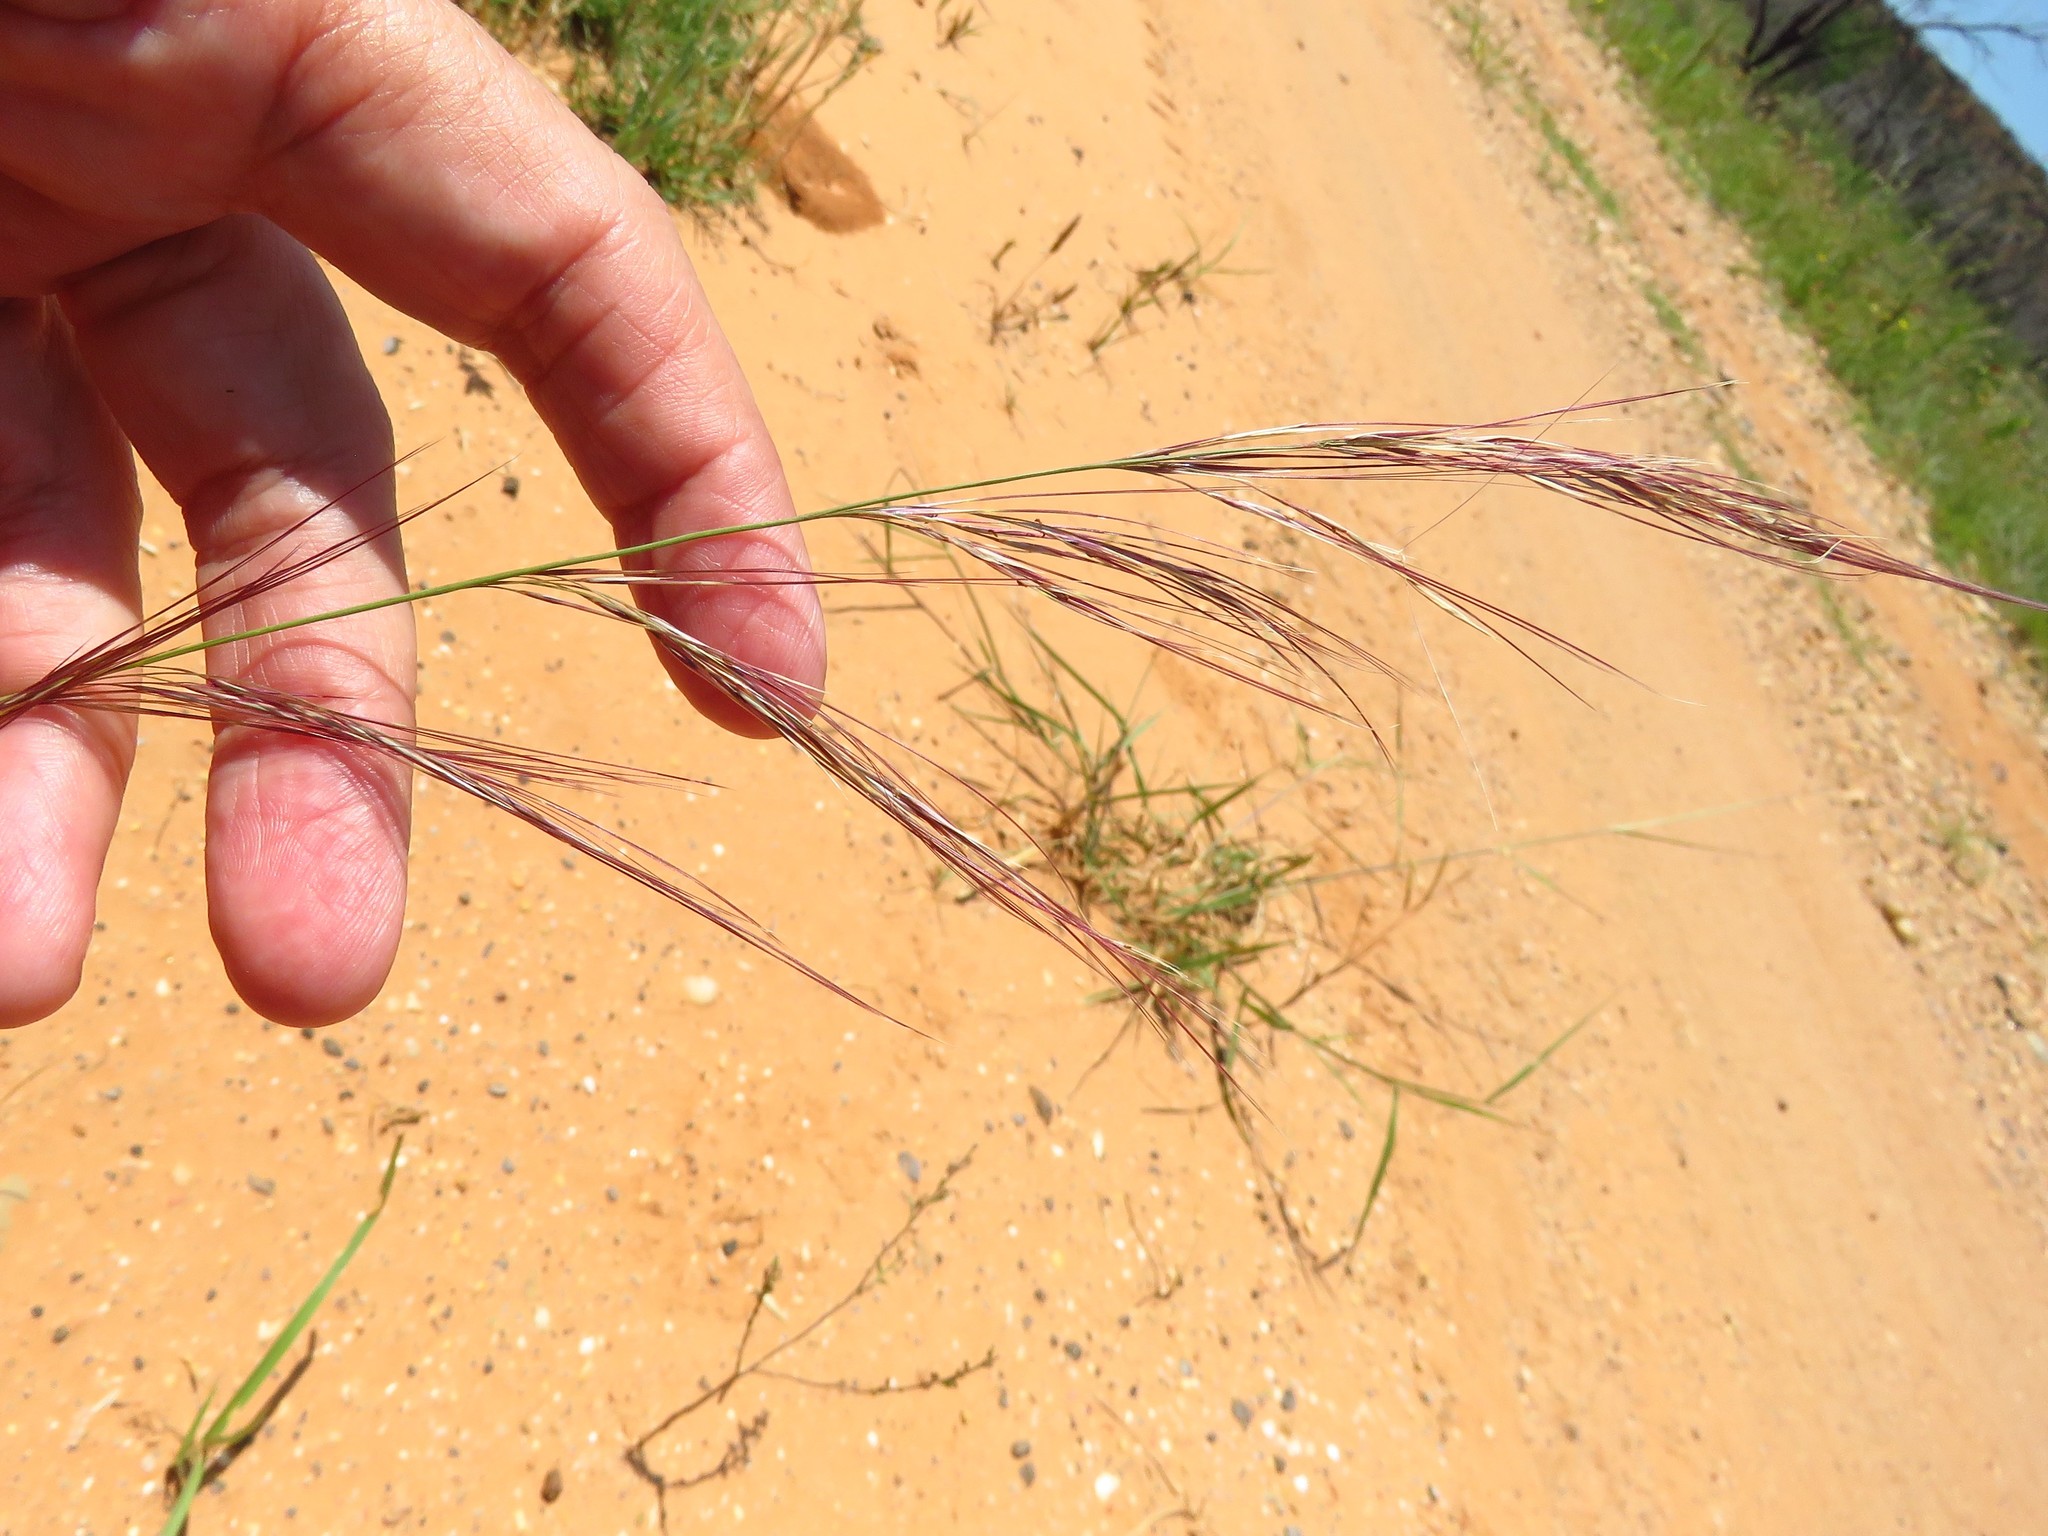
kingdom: Plantae
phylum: Tracheophyta
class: Liliopsida
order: Poales
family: Poaceae
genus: Aristida
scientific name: Aristida purpurea
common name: Purple threeawn
